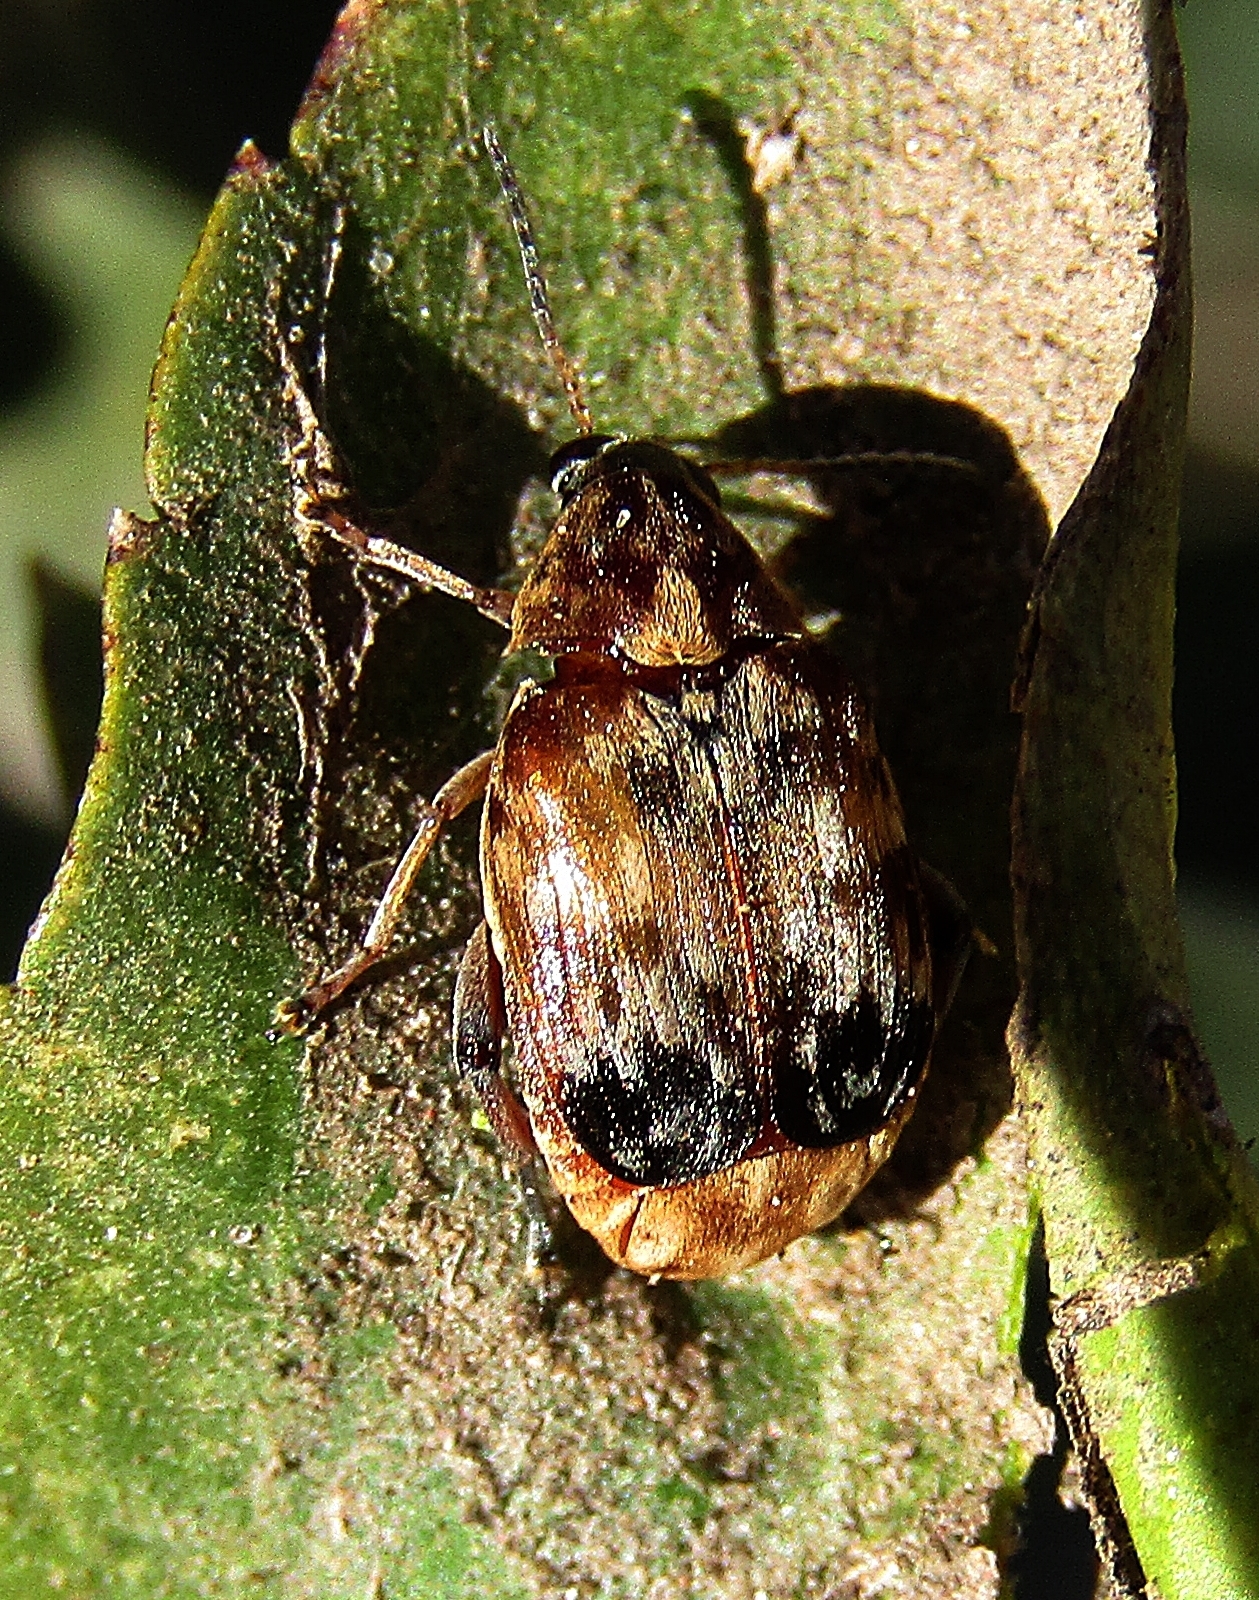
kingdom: Animalia
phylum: Arthropoda
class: Insecta
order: Coleoptera
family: Chrysomelidae
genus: Megabruchidius
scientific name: Megabruchidius tonkineus
